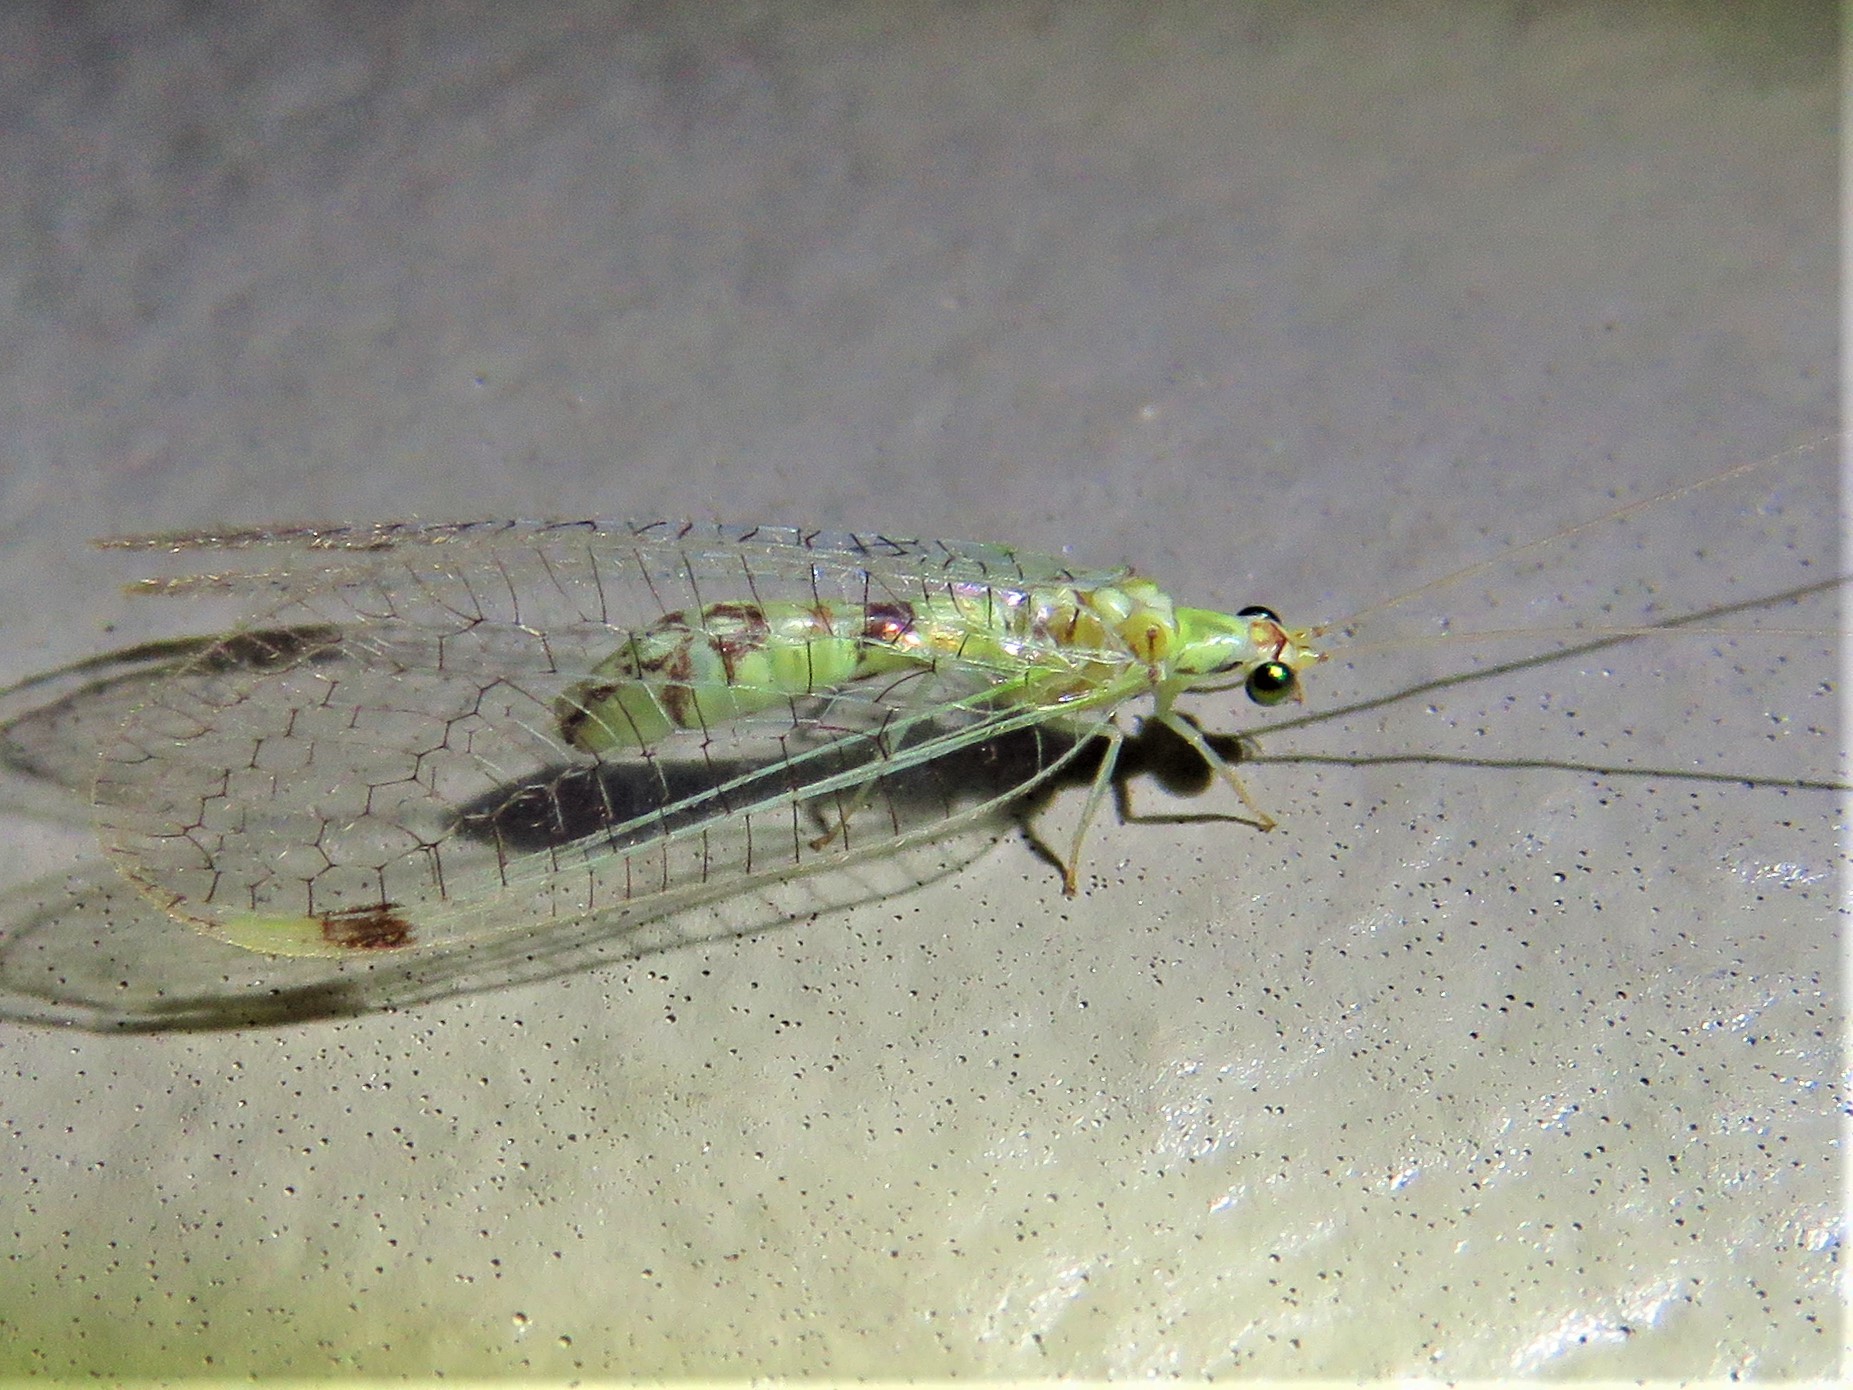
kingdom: Animalia
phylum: Arthropoda
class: Insecta
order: Neuroptera
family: Chrysopidae
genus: Leucochrysa
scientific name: Leucochrysa americana
